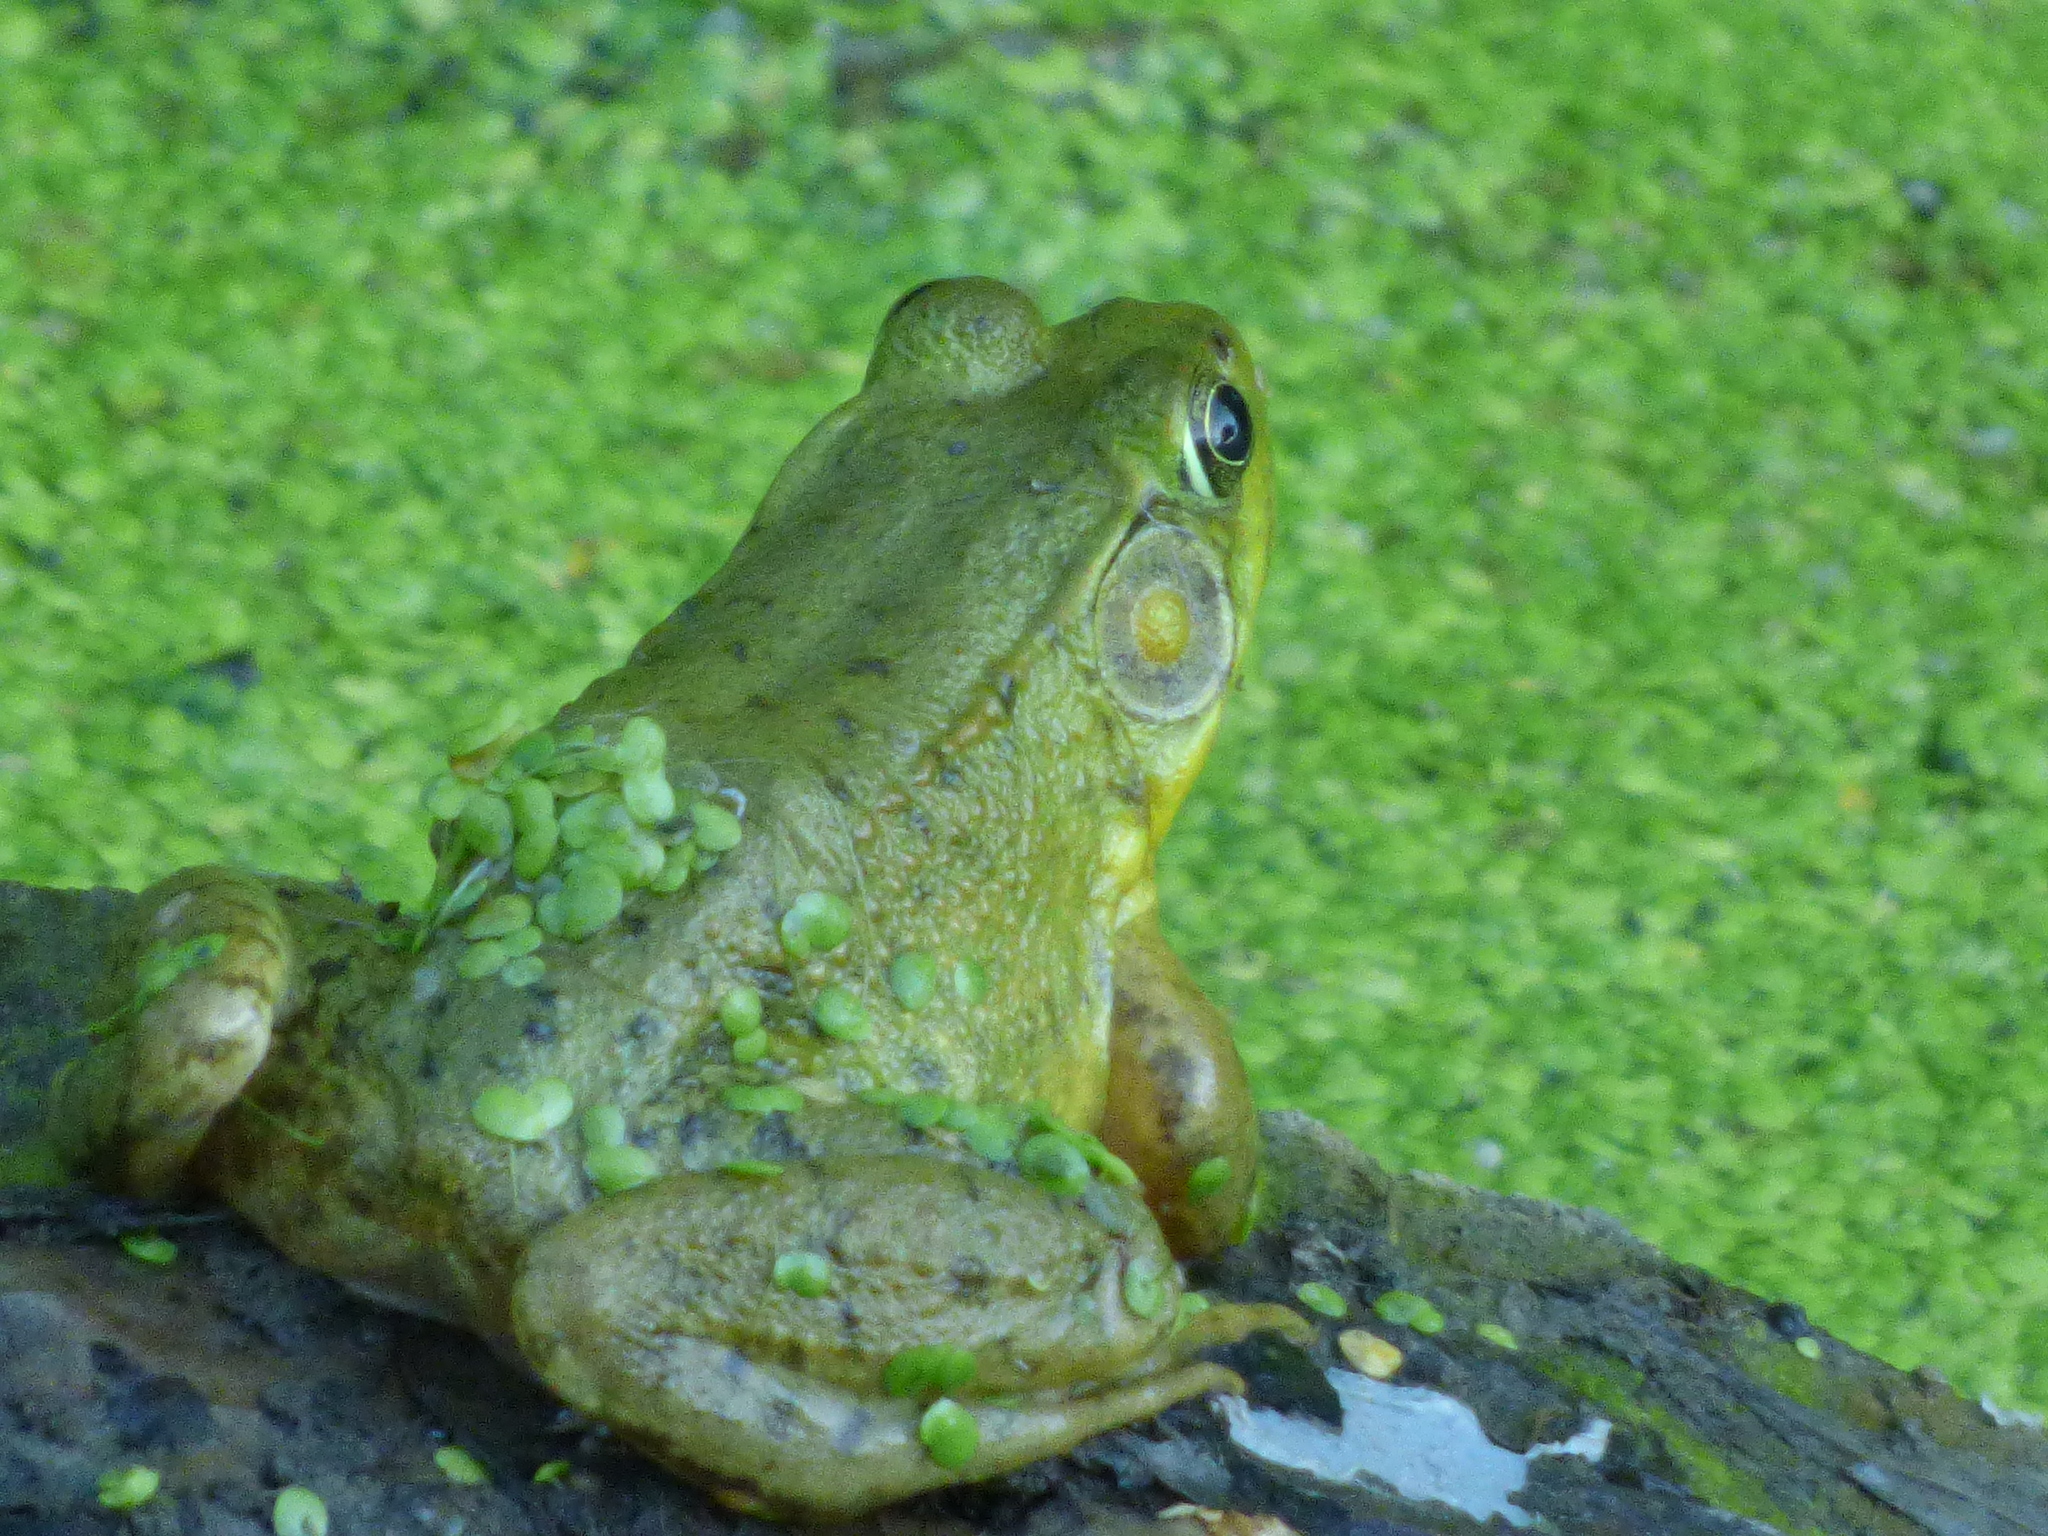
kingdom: Animalia
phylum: Chordata
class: Amphibia
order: Anura
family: Ranidae
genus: Lithobates
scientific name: Lithobates clamitans
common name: Green frog
